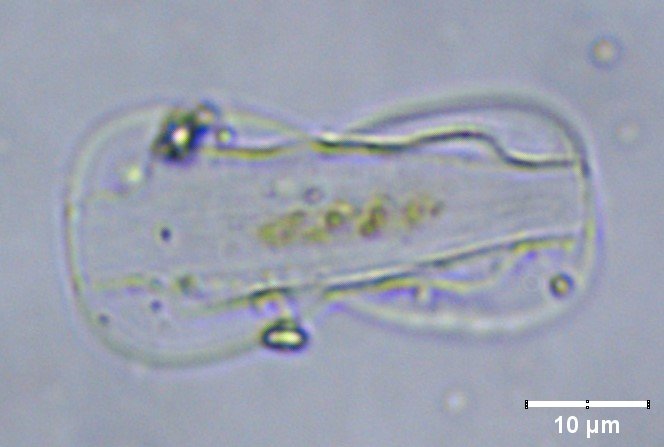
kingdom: Chromista
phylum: Ochrophyta
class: Bacillariophyceae
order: Surirellales
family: Entomoneidaceae
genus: Entomoneis
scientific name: Entomoneis paludosa
